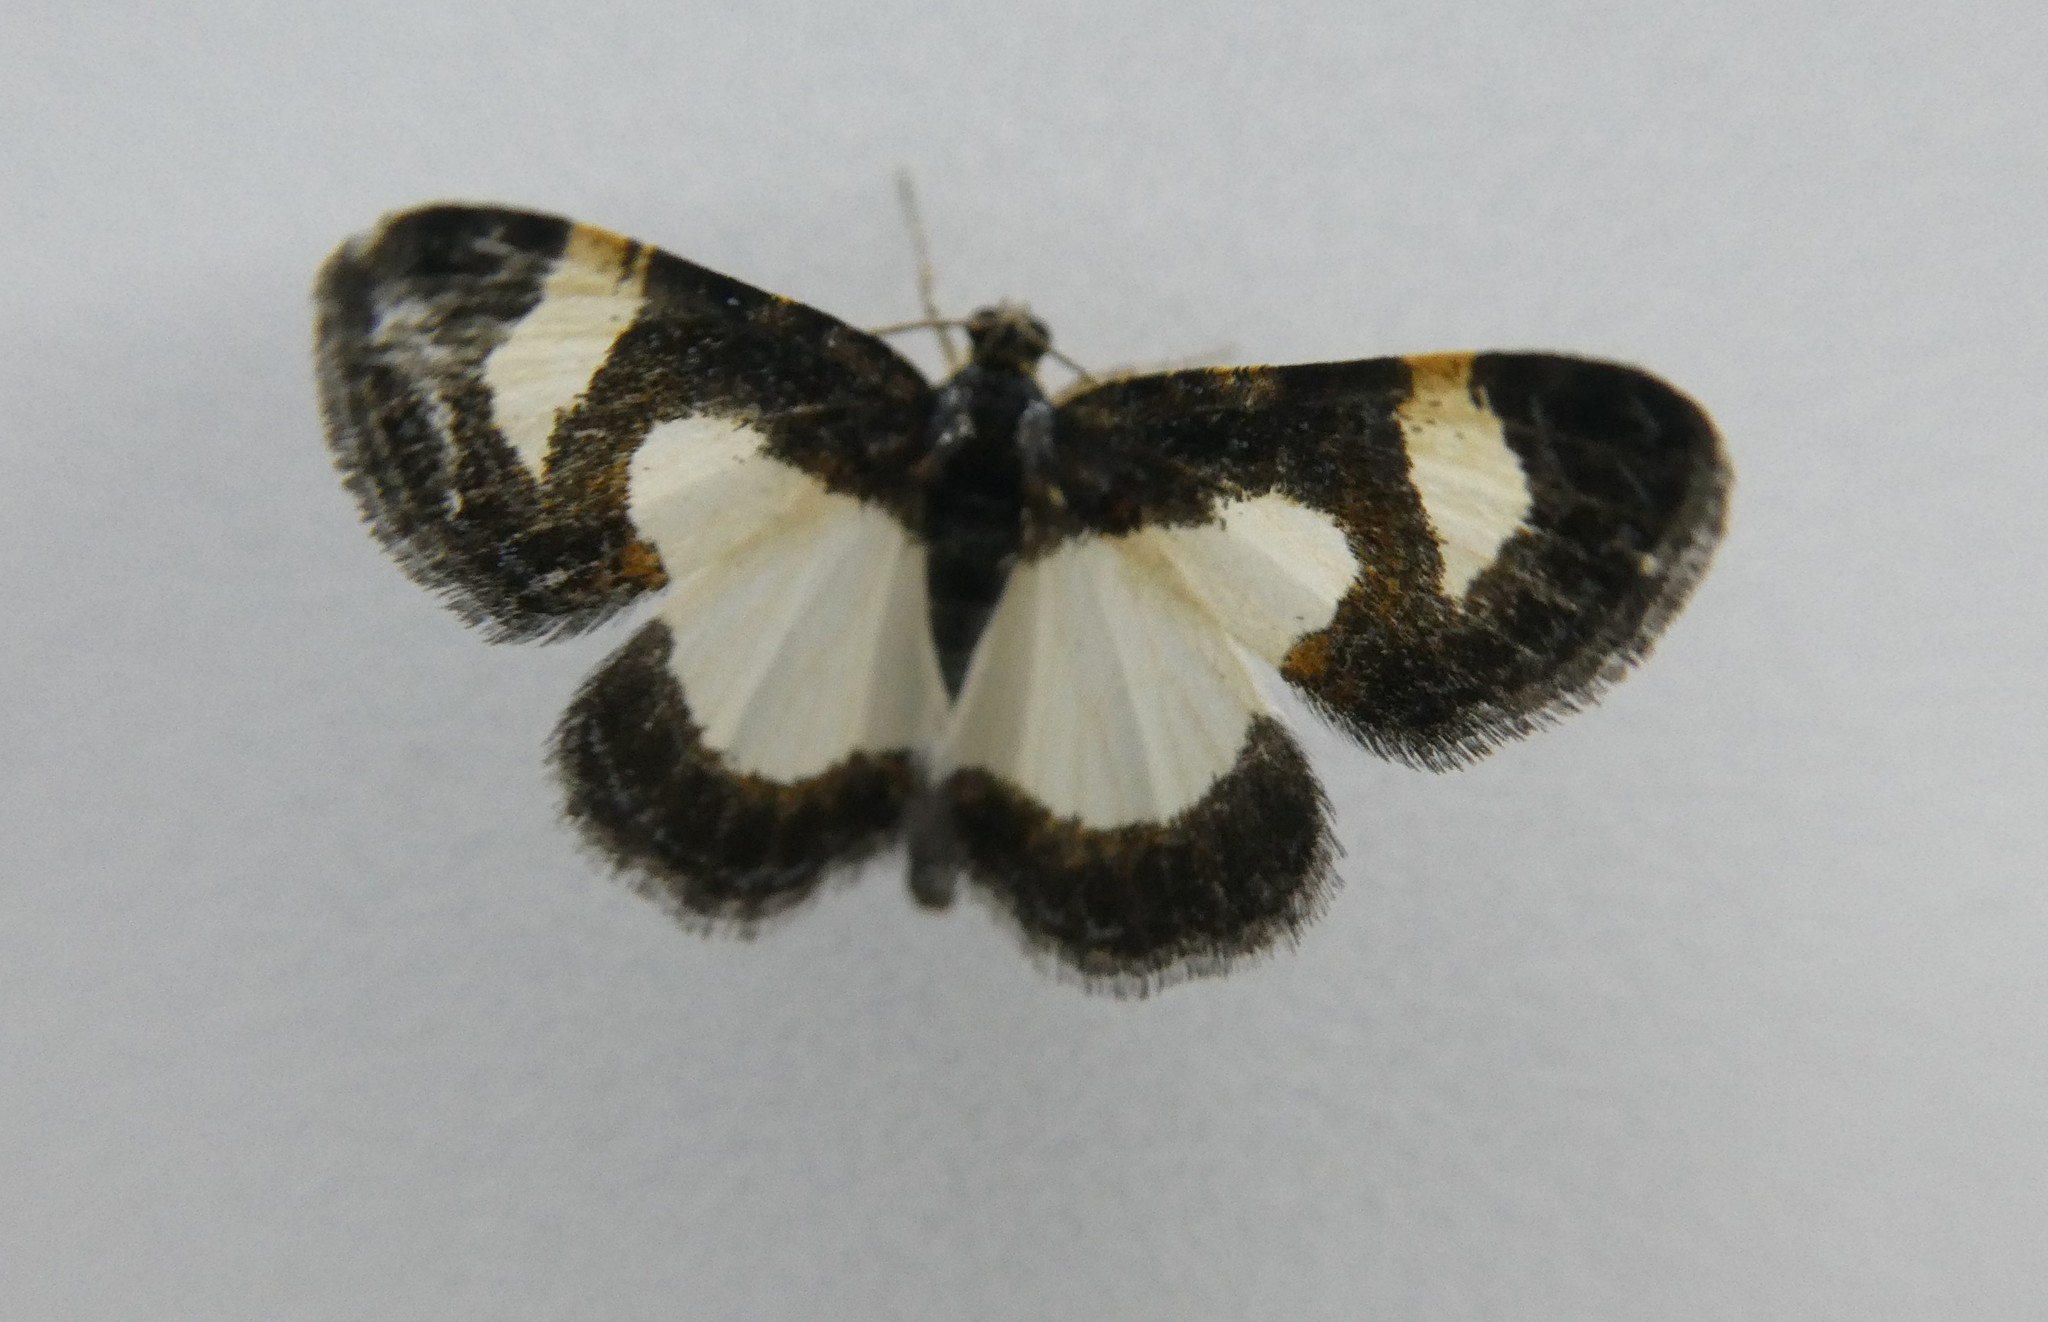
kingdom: Animalia
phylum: Arthropoda
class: Insecta
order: Lepidoptera
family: Geometridae
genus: Heliomata
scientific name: Heliomata cycladata
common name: Common spring moth
